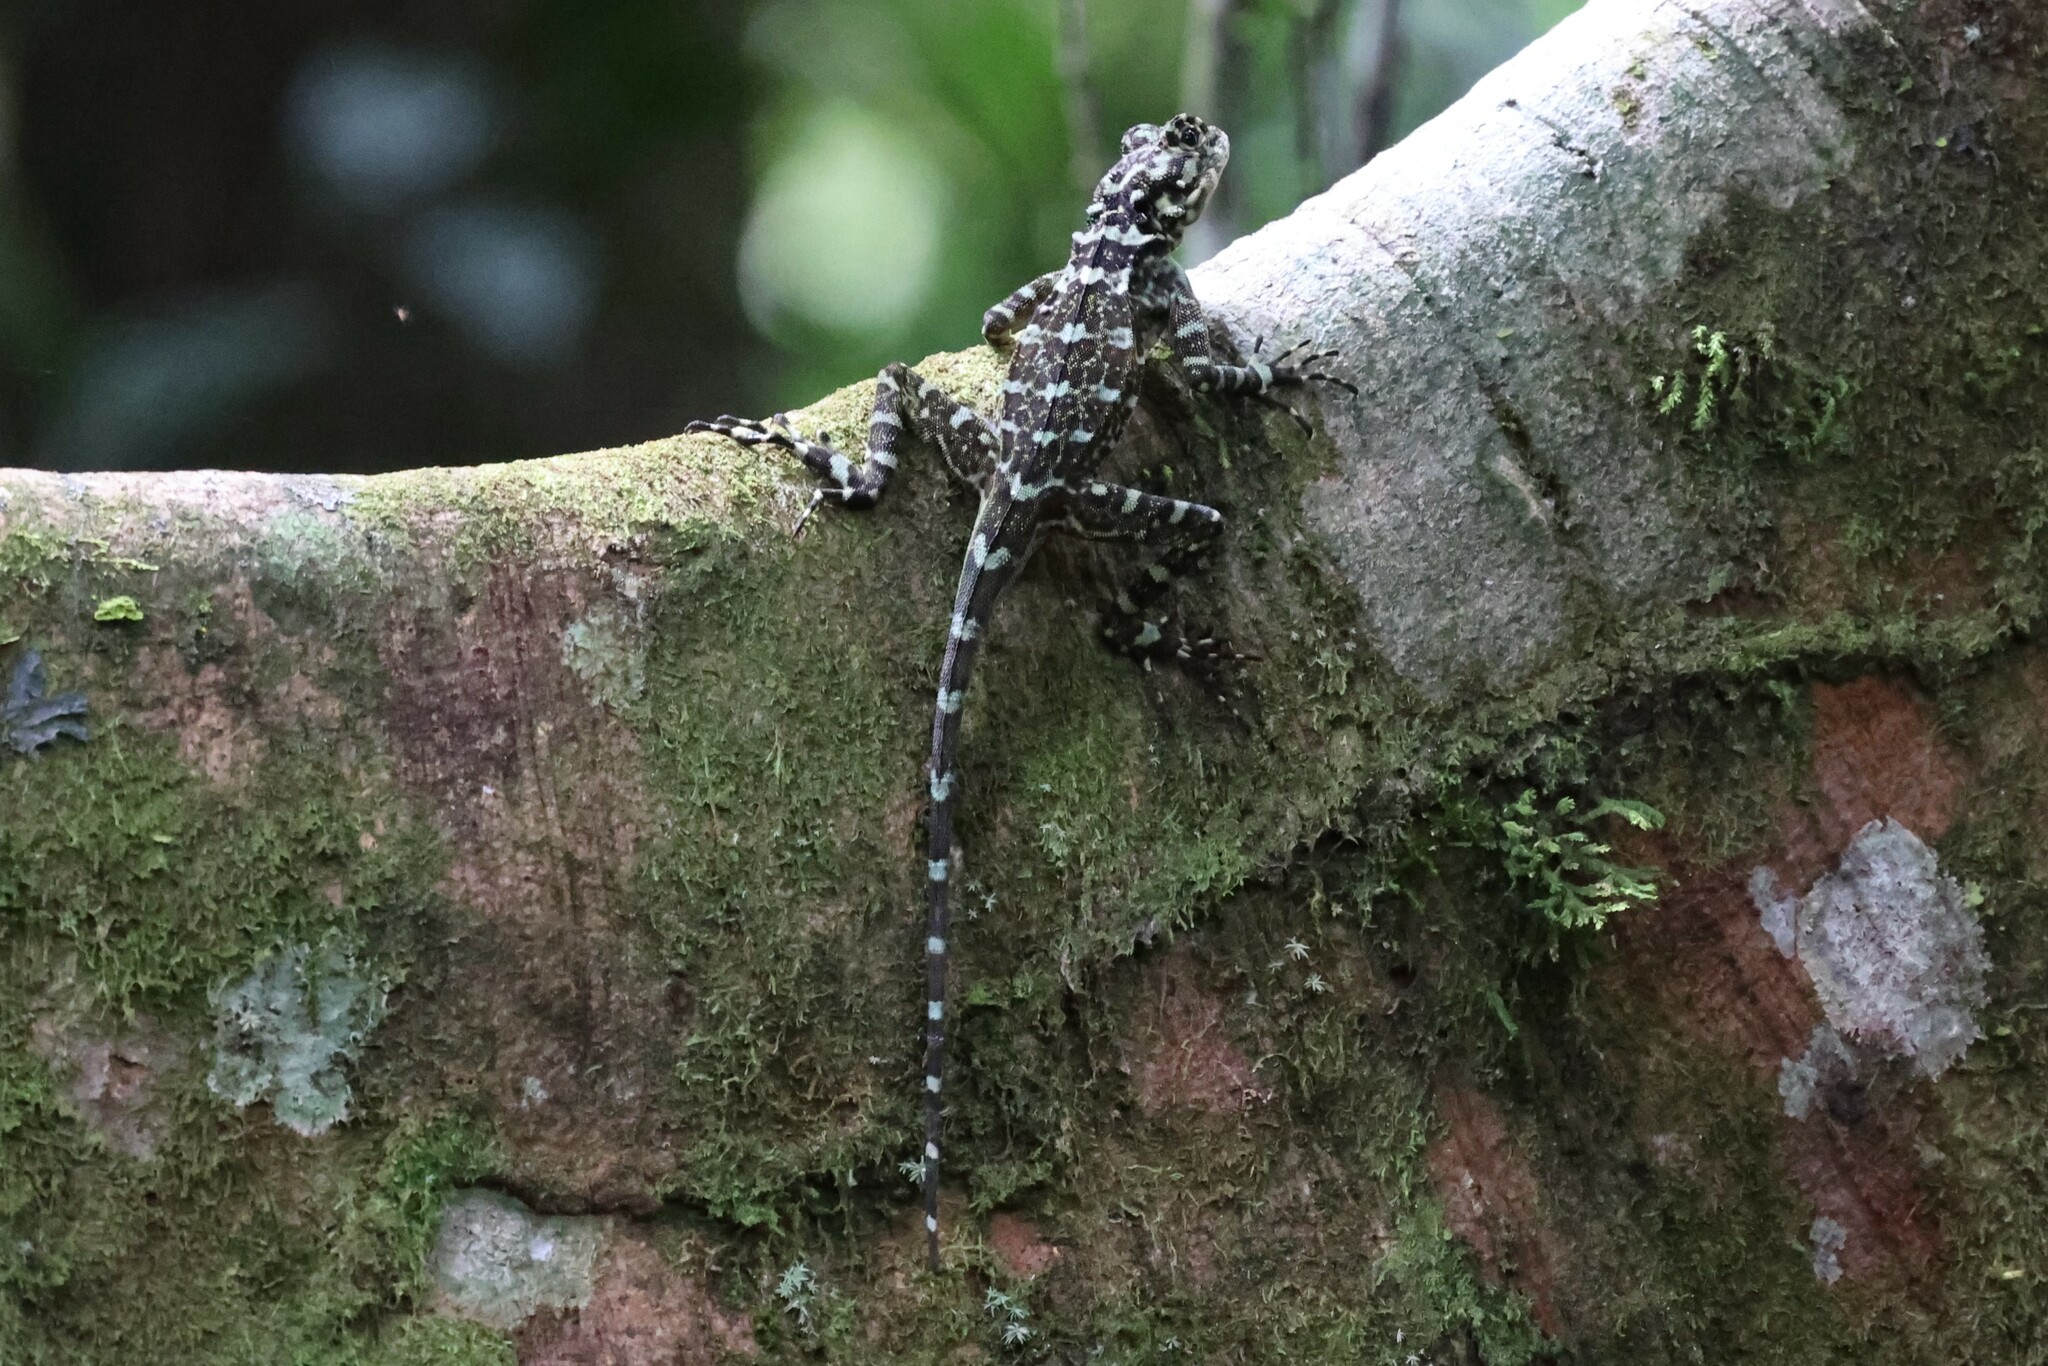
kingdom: Animalia
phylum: Chordata
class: Squamata
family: Tropiduridae
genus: Plica
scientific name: Plica plica
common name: Tree runner
